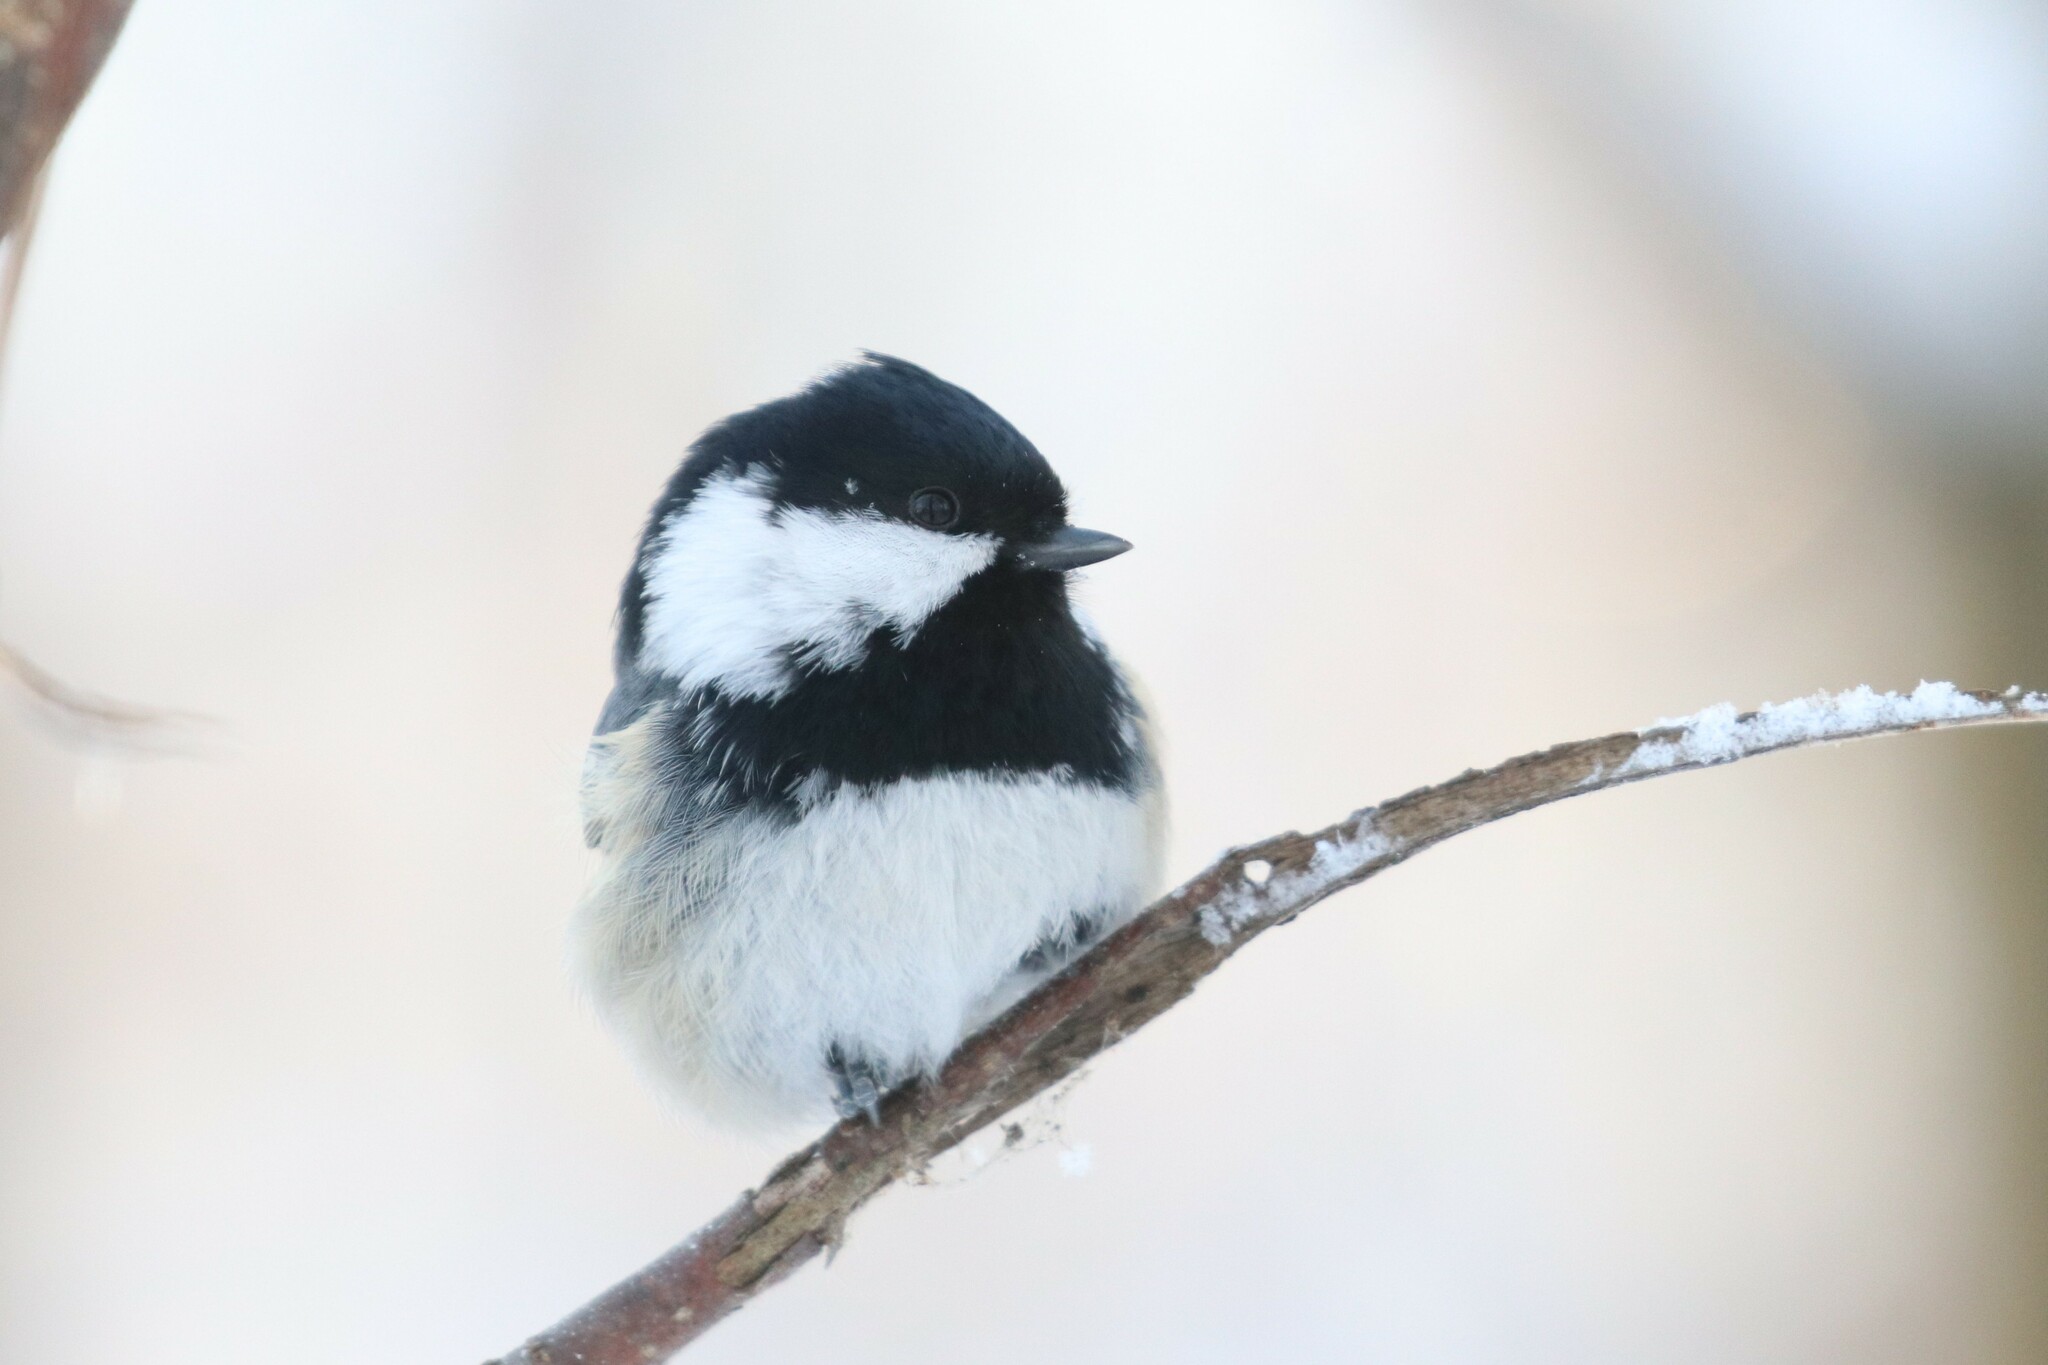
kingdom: Animalia
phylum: Chordata
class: Aves
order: Passeriformes
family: Paridae
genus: Periparus
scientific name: Periparus ater
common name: Coal tit
